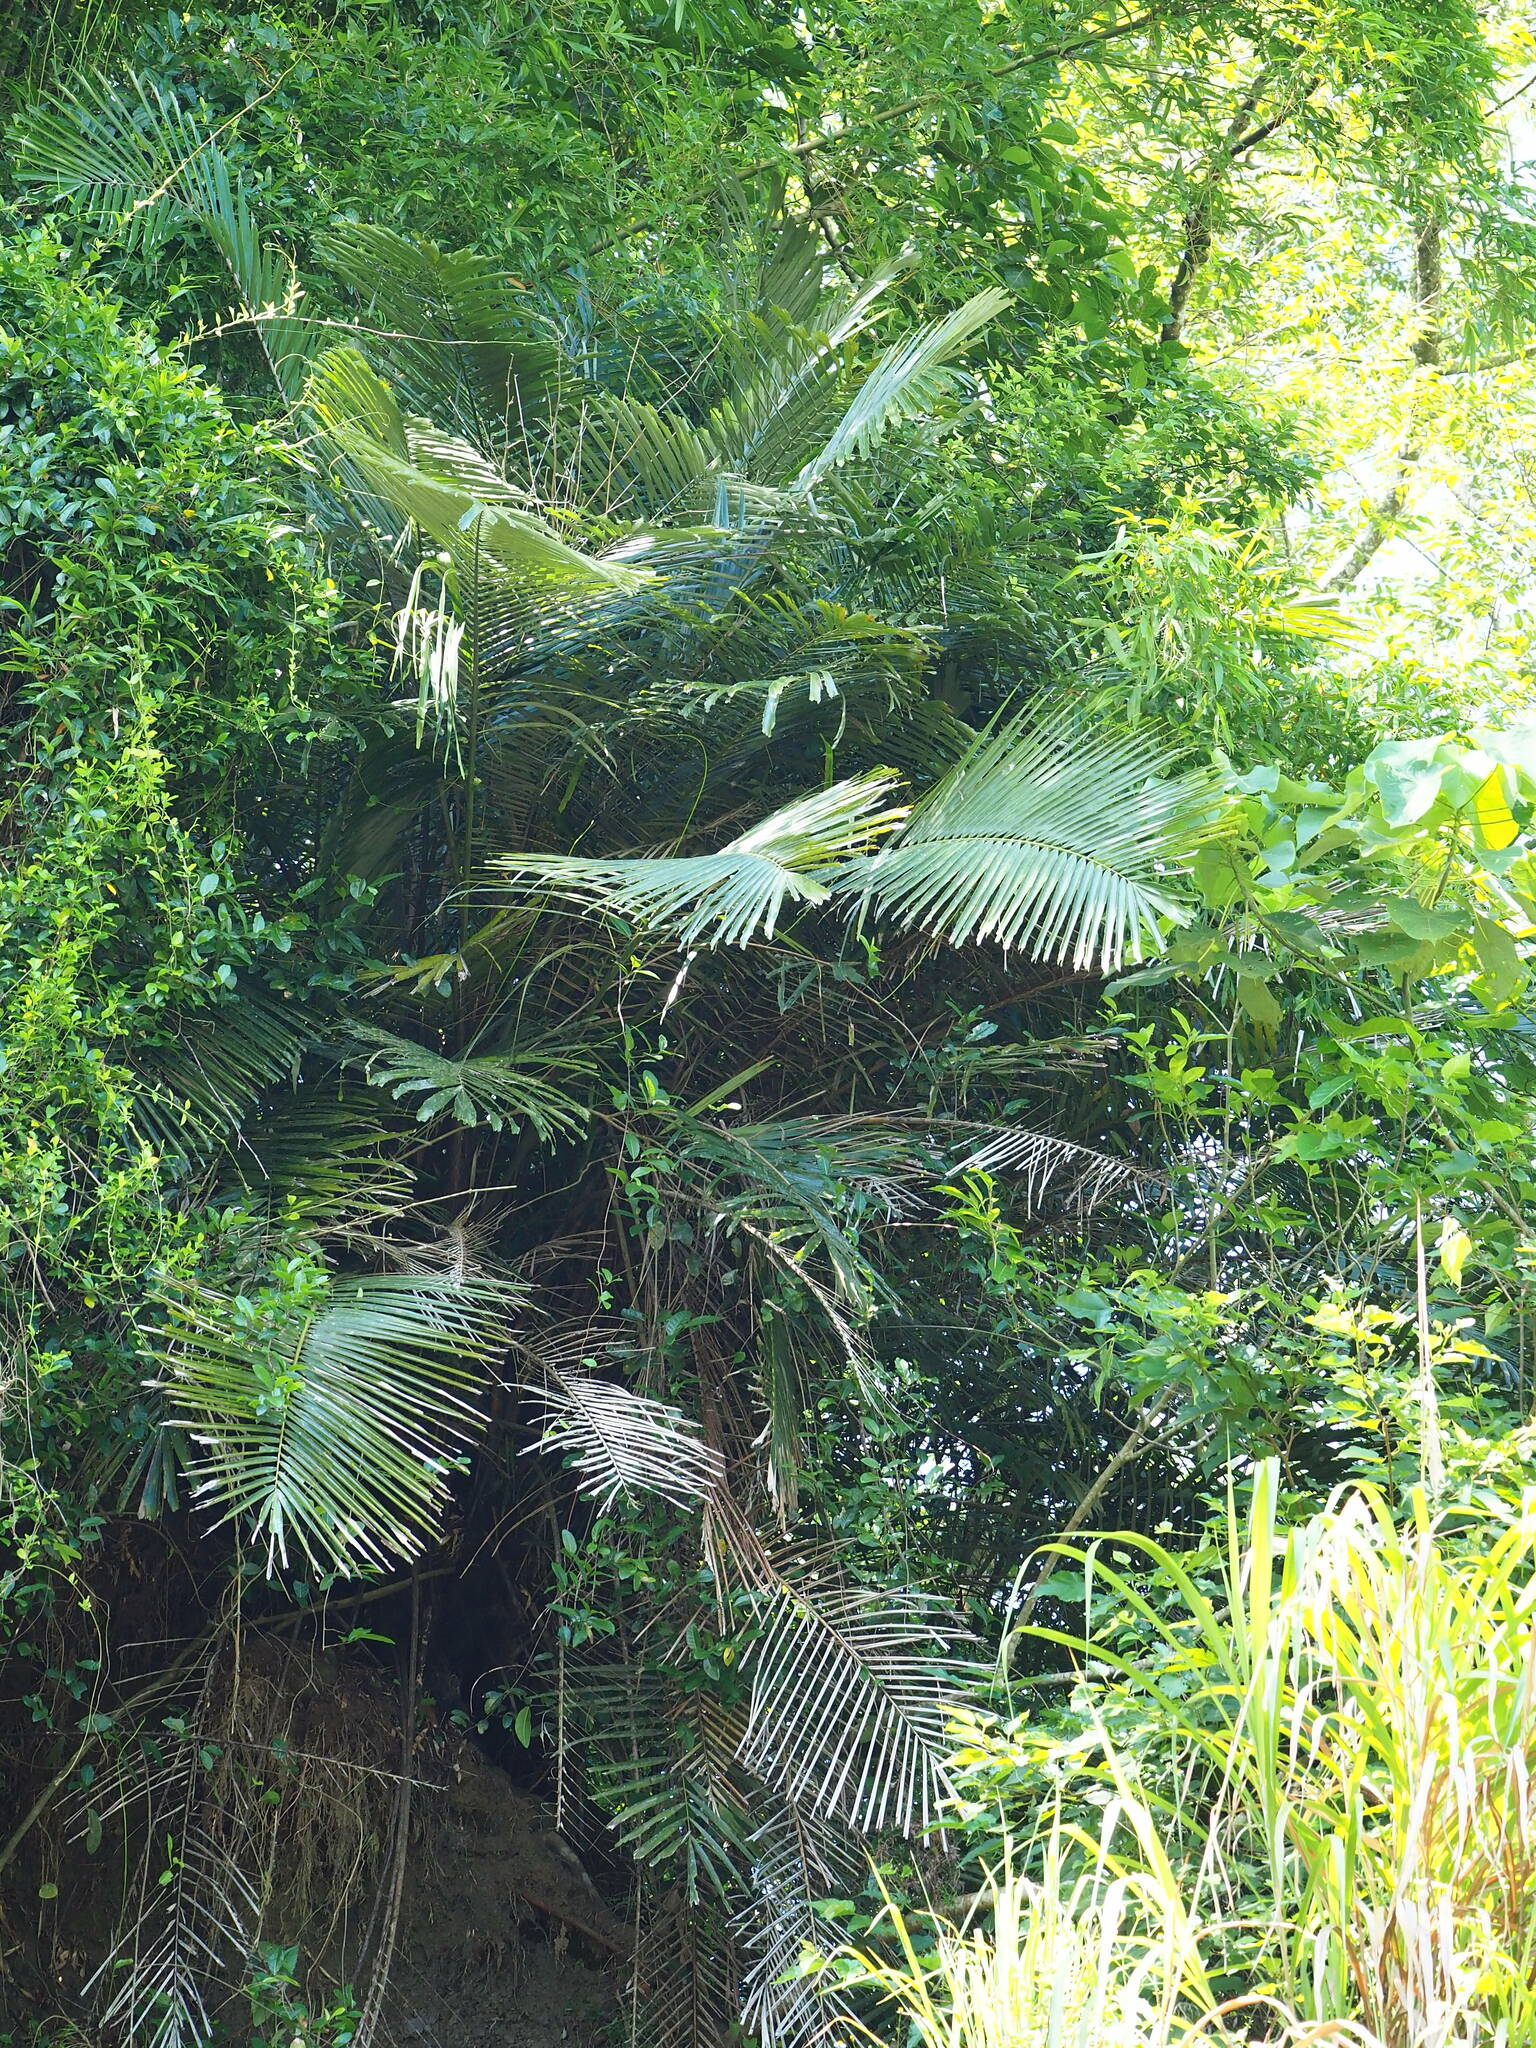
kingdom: Plantae
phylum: Tracheophyta
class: Liliopsida
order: Arecales
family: Arecaceae
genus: Arenga
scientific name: Arenga engleri
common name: Formosan sugar palm
